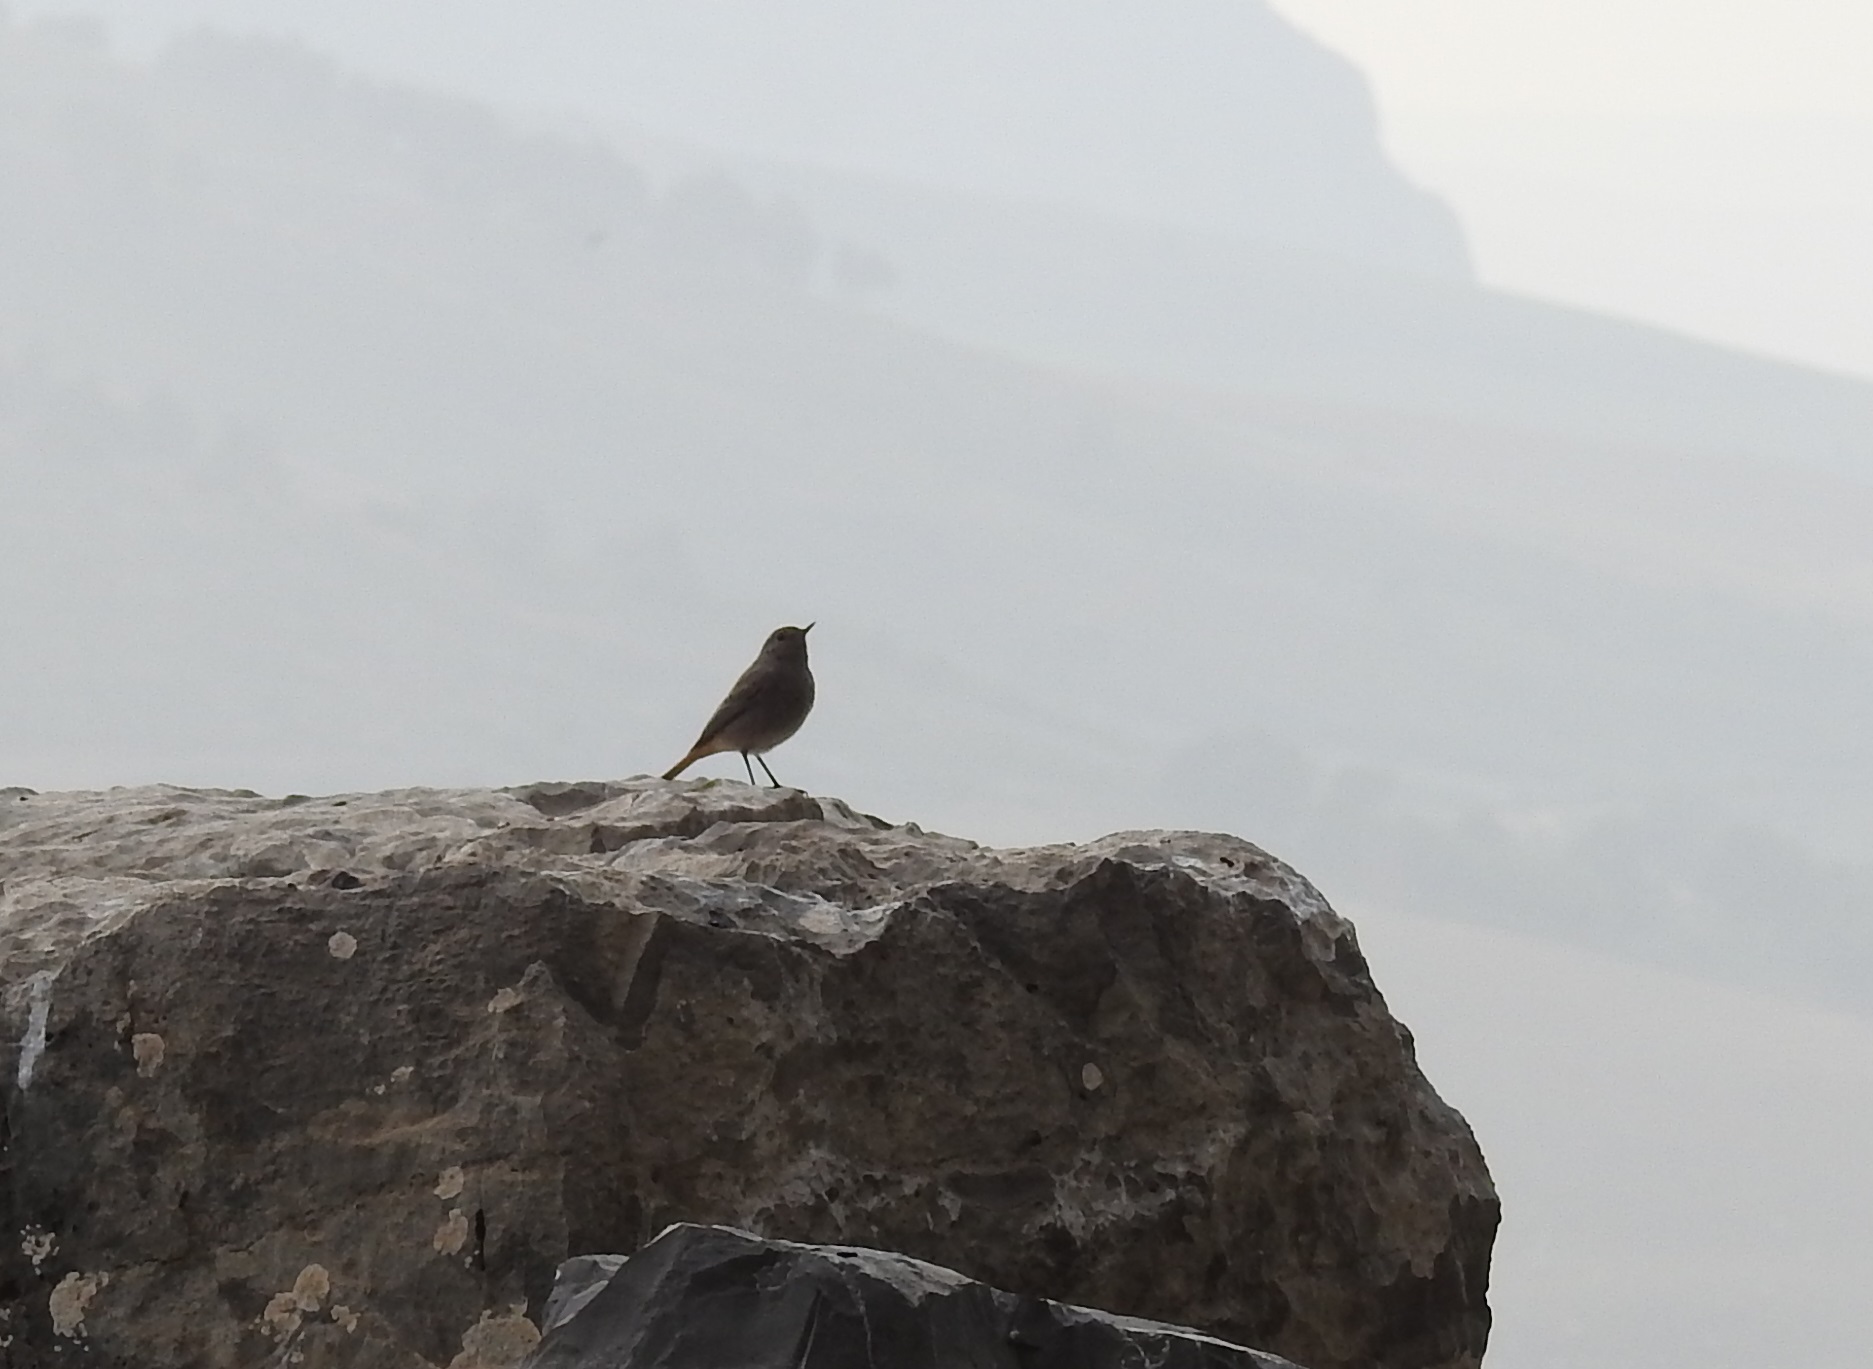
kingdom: Animalia
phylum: Chordata
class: Aves
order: Passeriformes
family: Muscicapidae
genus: Phoenicurus
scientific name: Phoenicurus ochruros
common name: Black redstart
